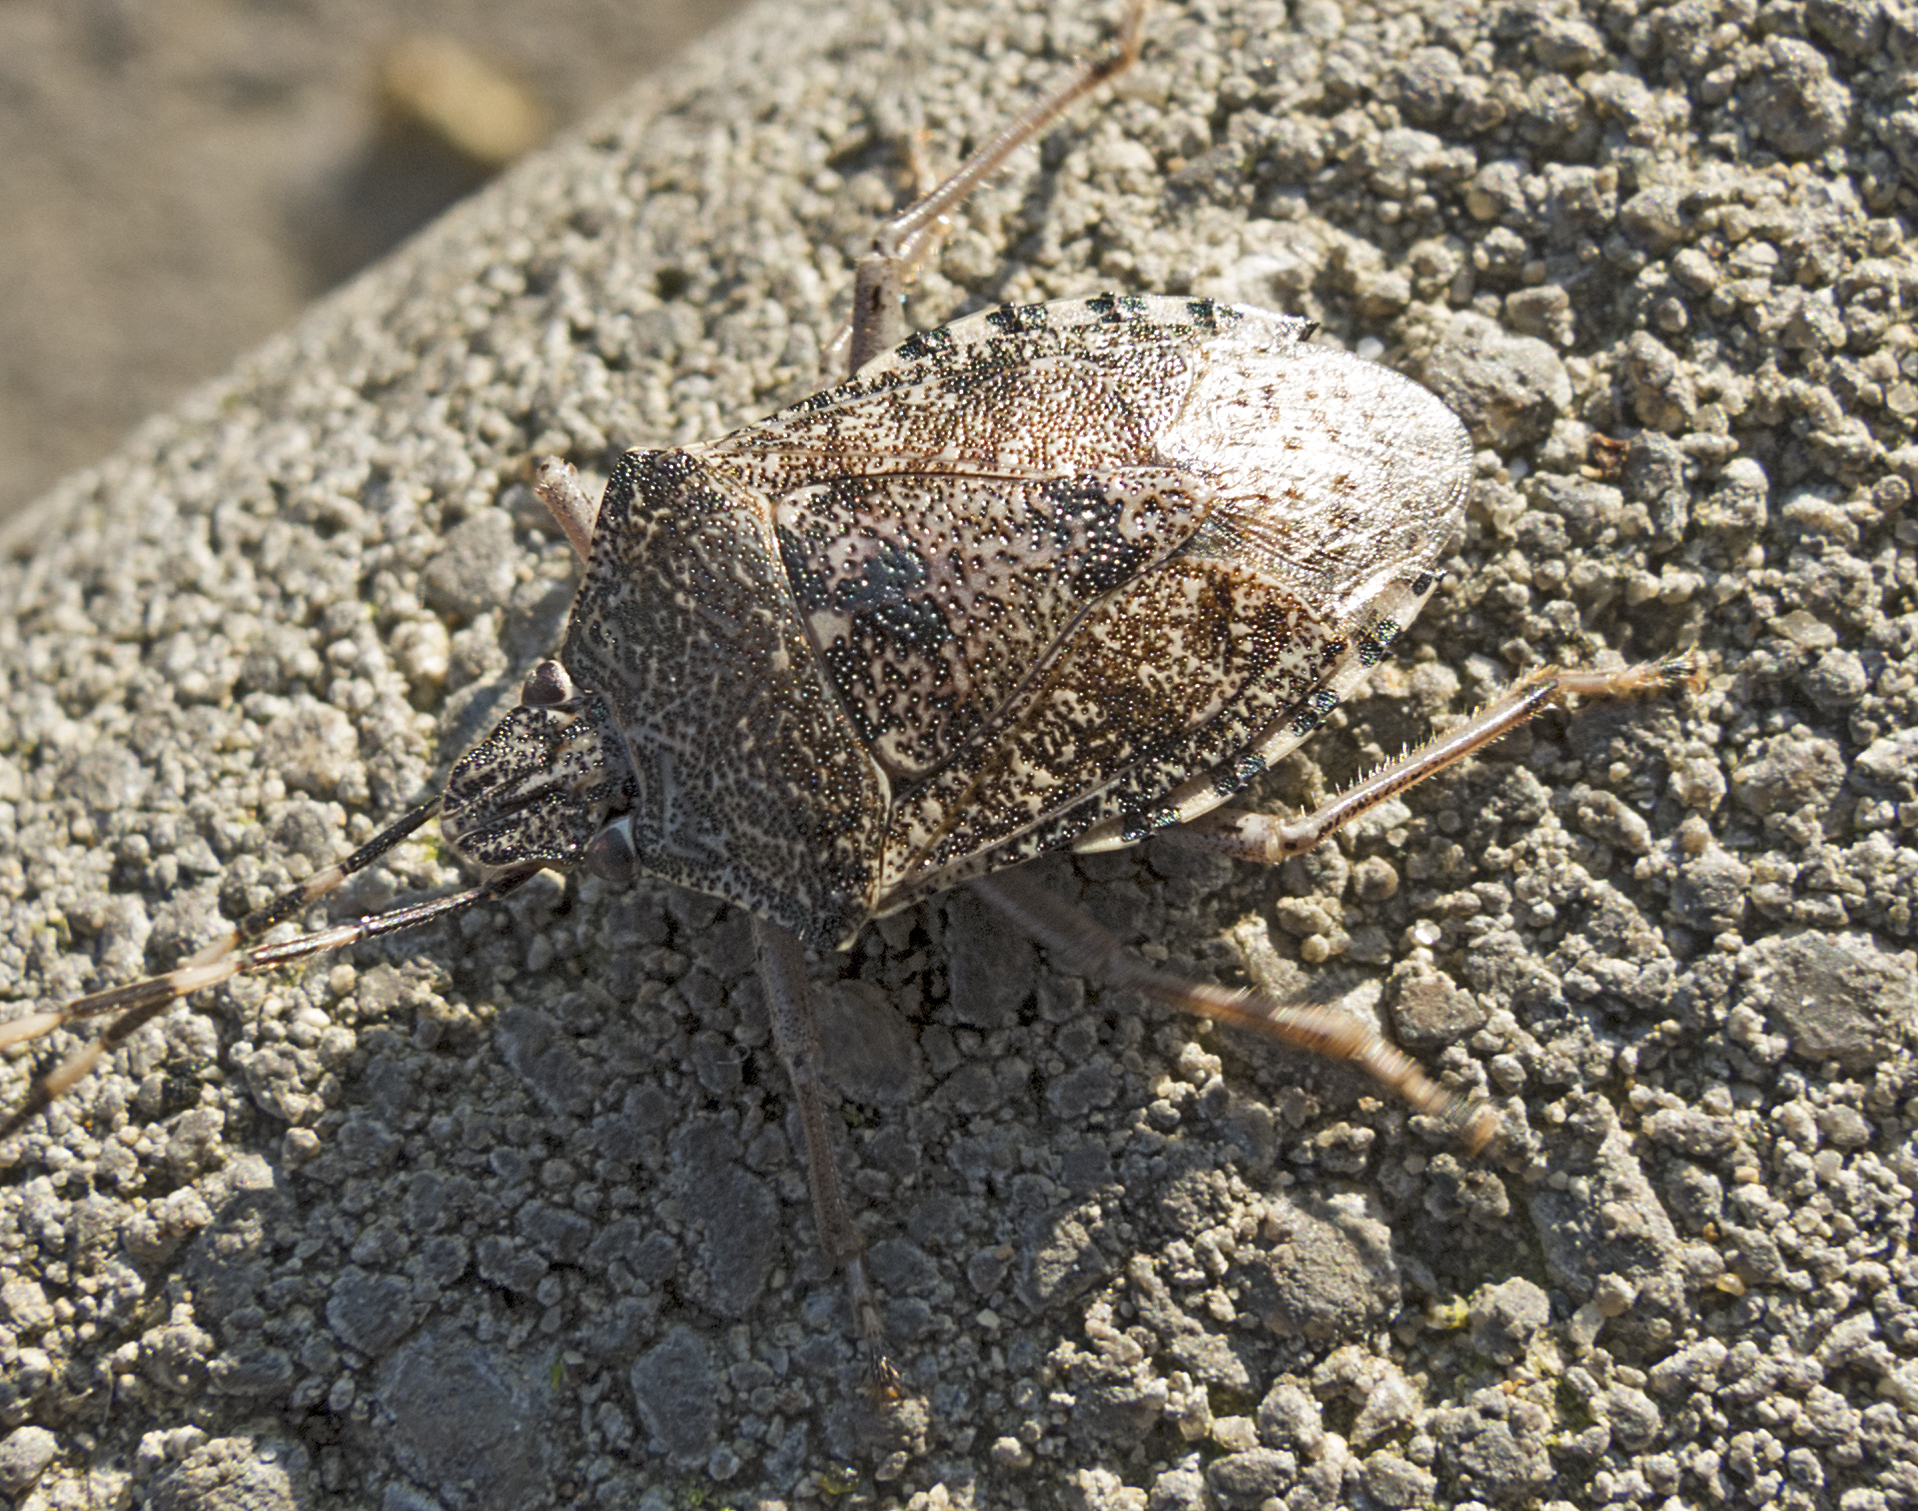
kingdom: Animalia
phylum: Arthropoda
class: Insecta
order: Hemiptera
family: Pentatomidae
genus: Rhaphigaster
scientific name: Rhaphigaster nebulosa
